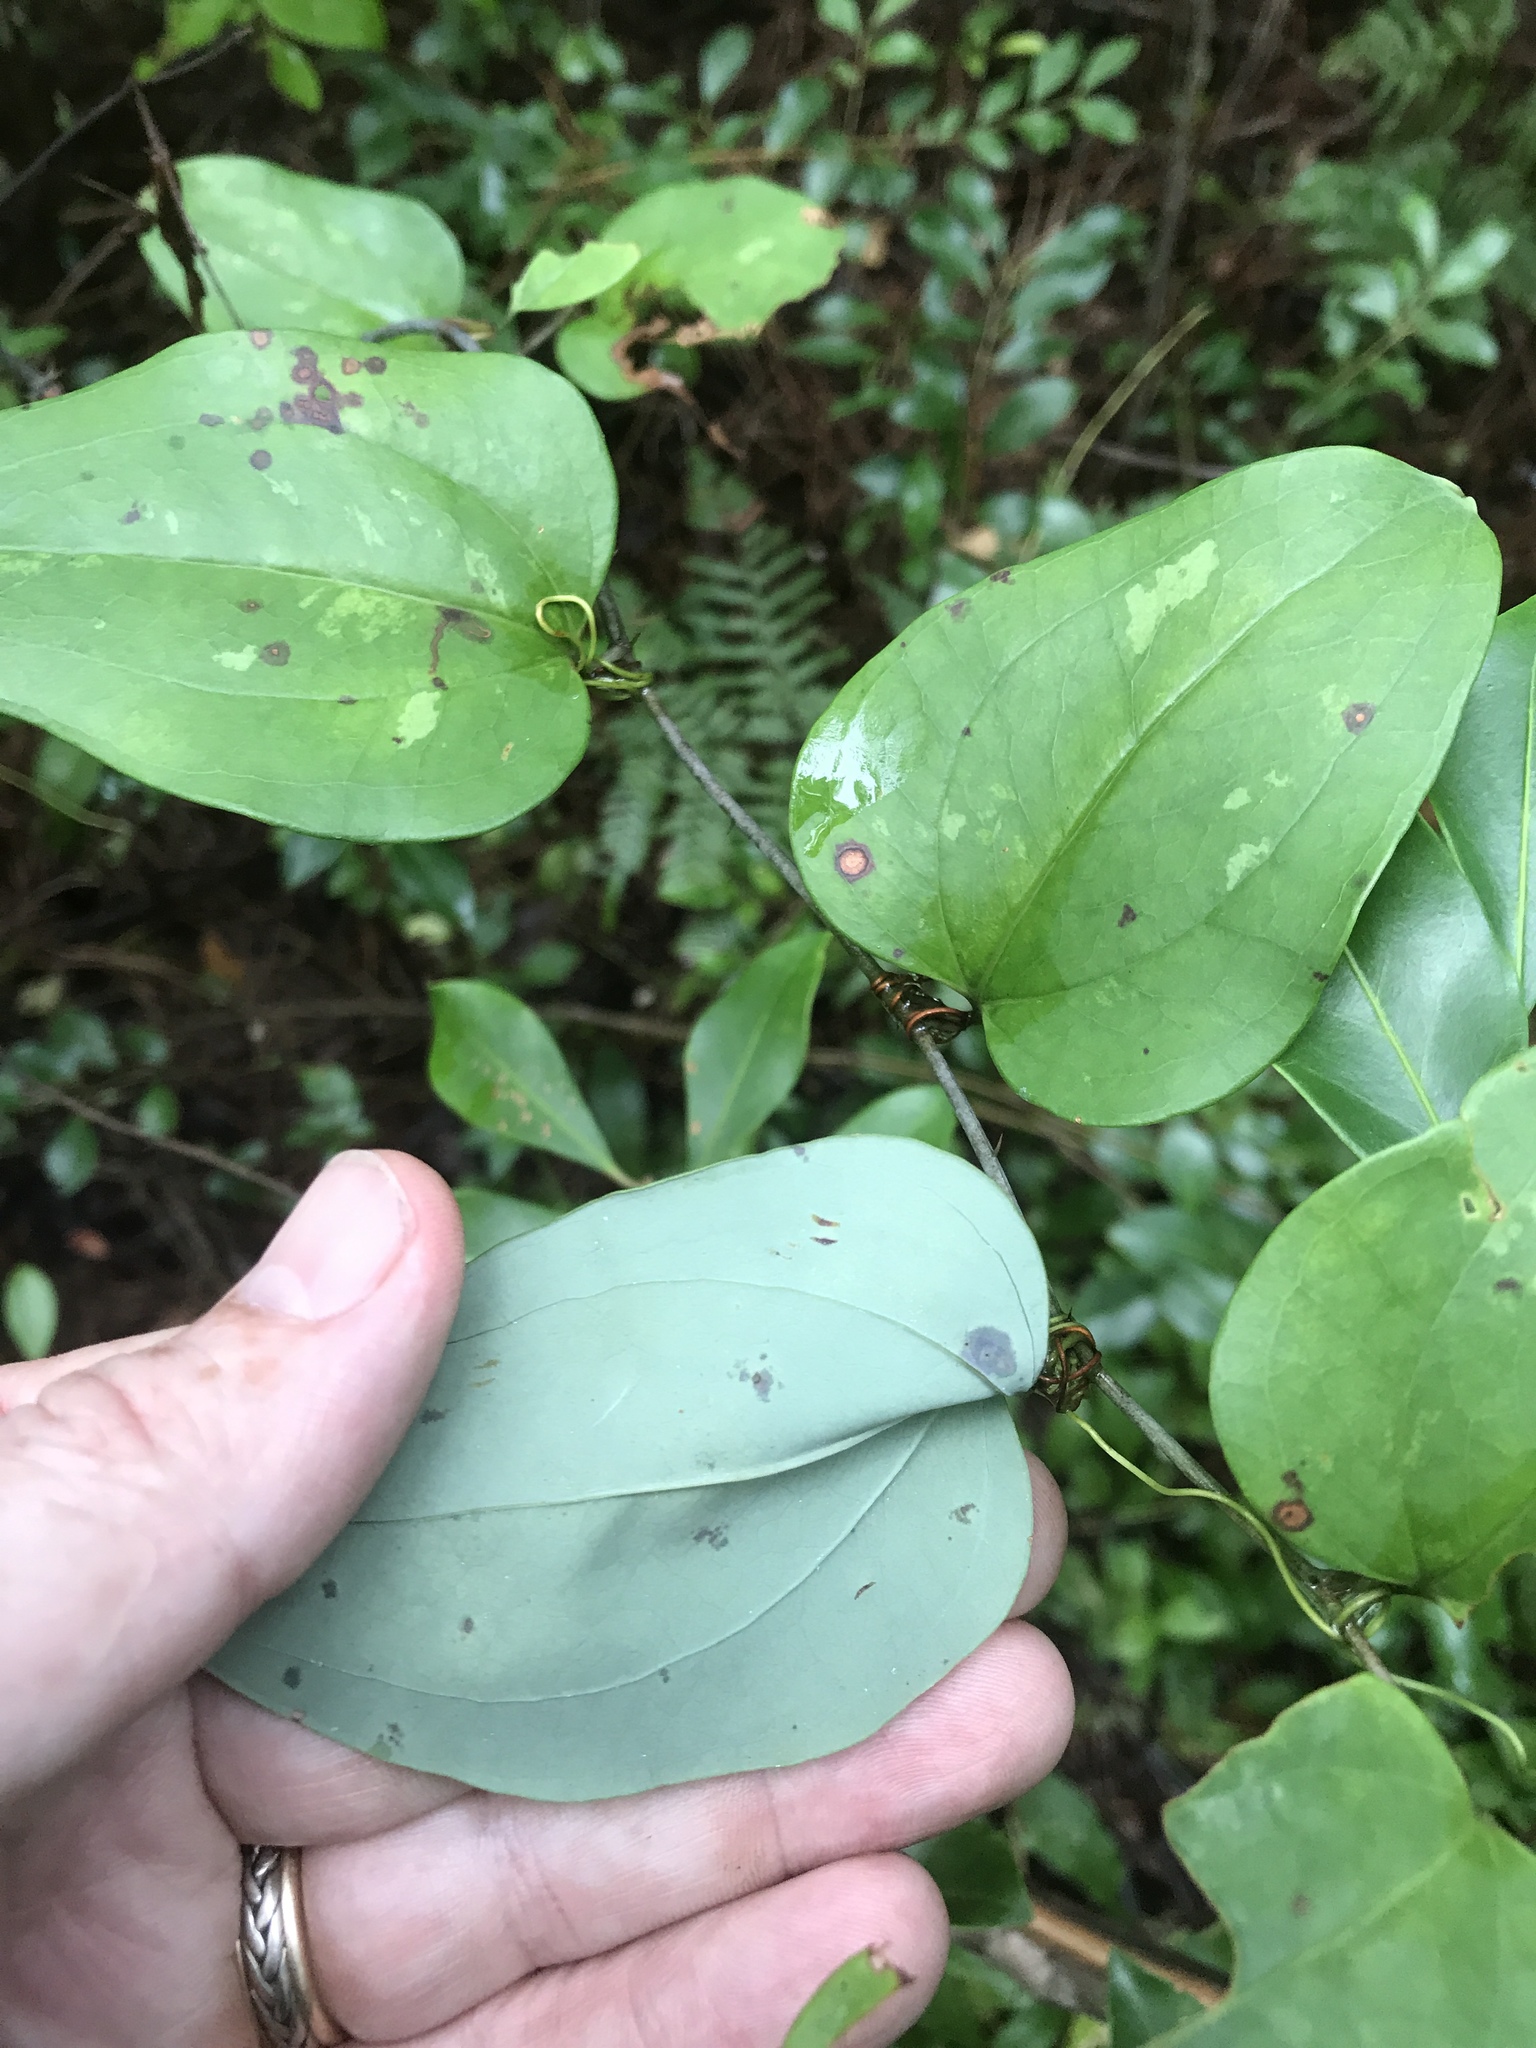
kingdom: Plantae
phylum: Tracheophyta
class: Liliopsida
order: Liliales
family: Smilacaceae
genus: Smilax
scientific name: Smilax glauca
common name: Cat greenbrier
